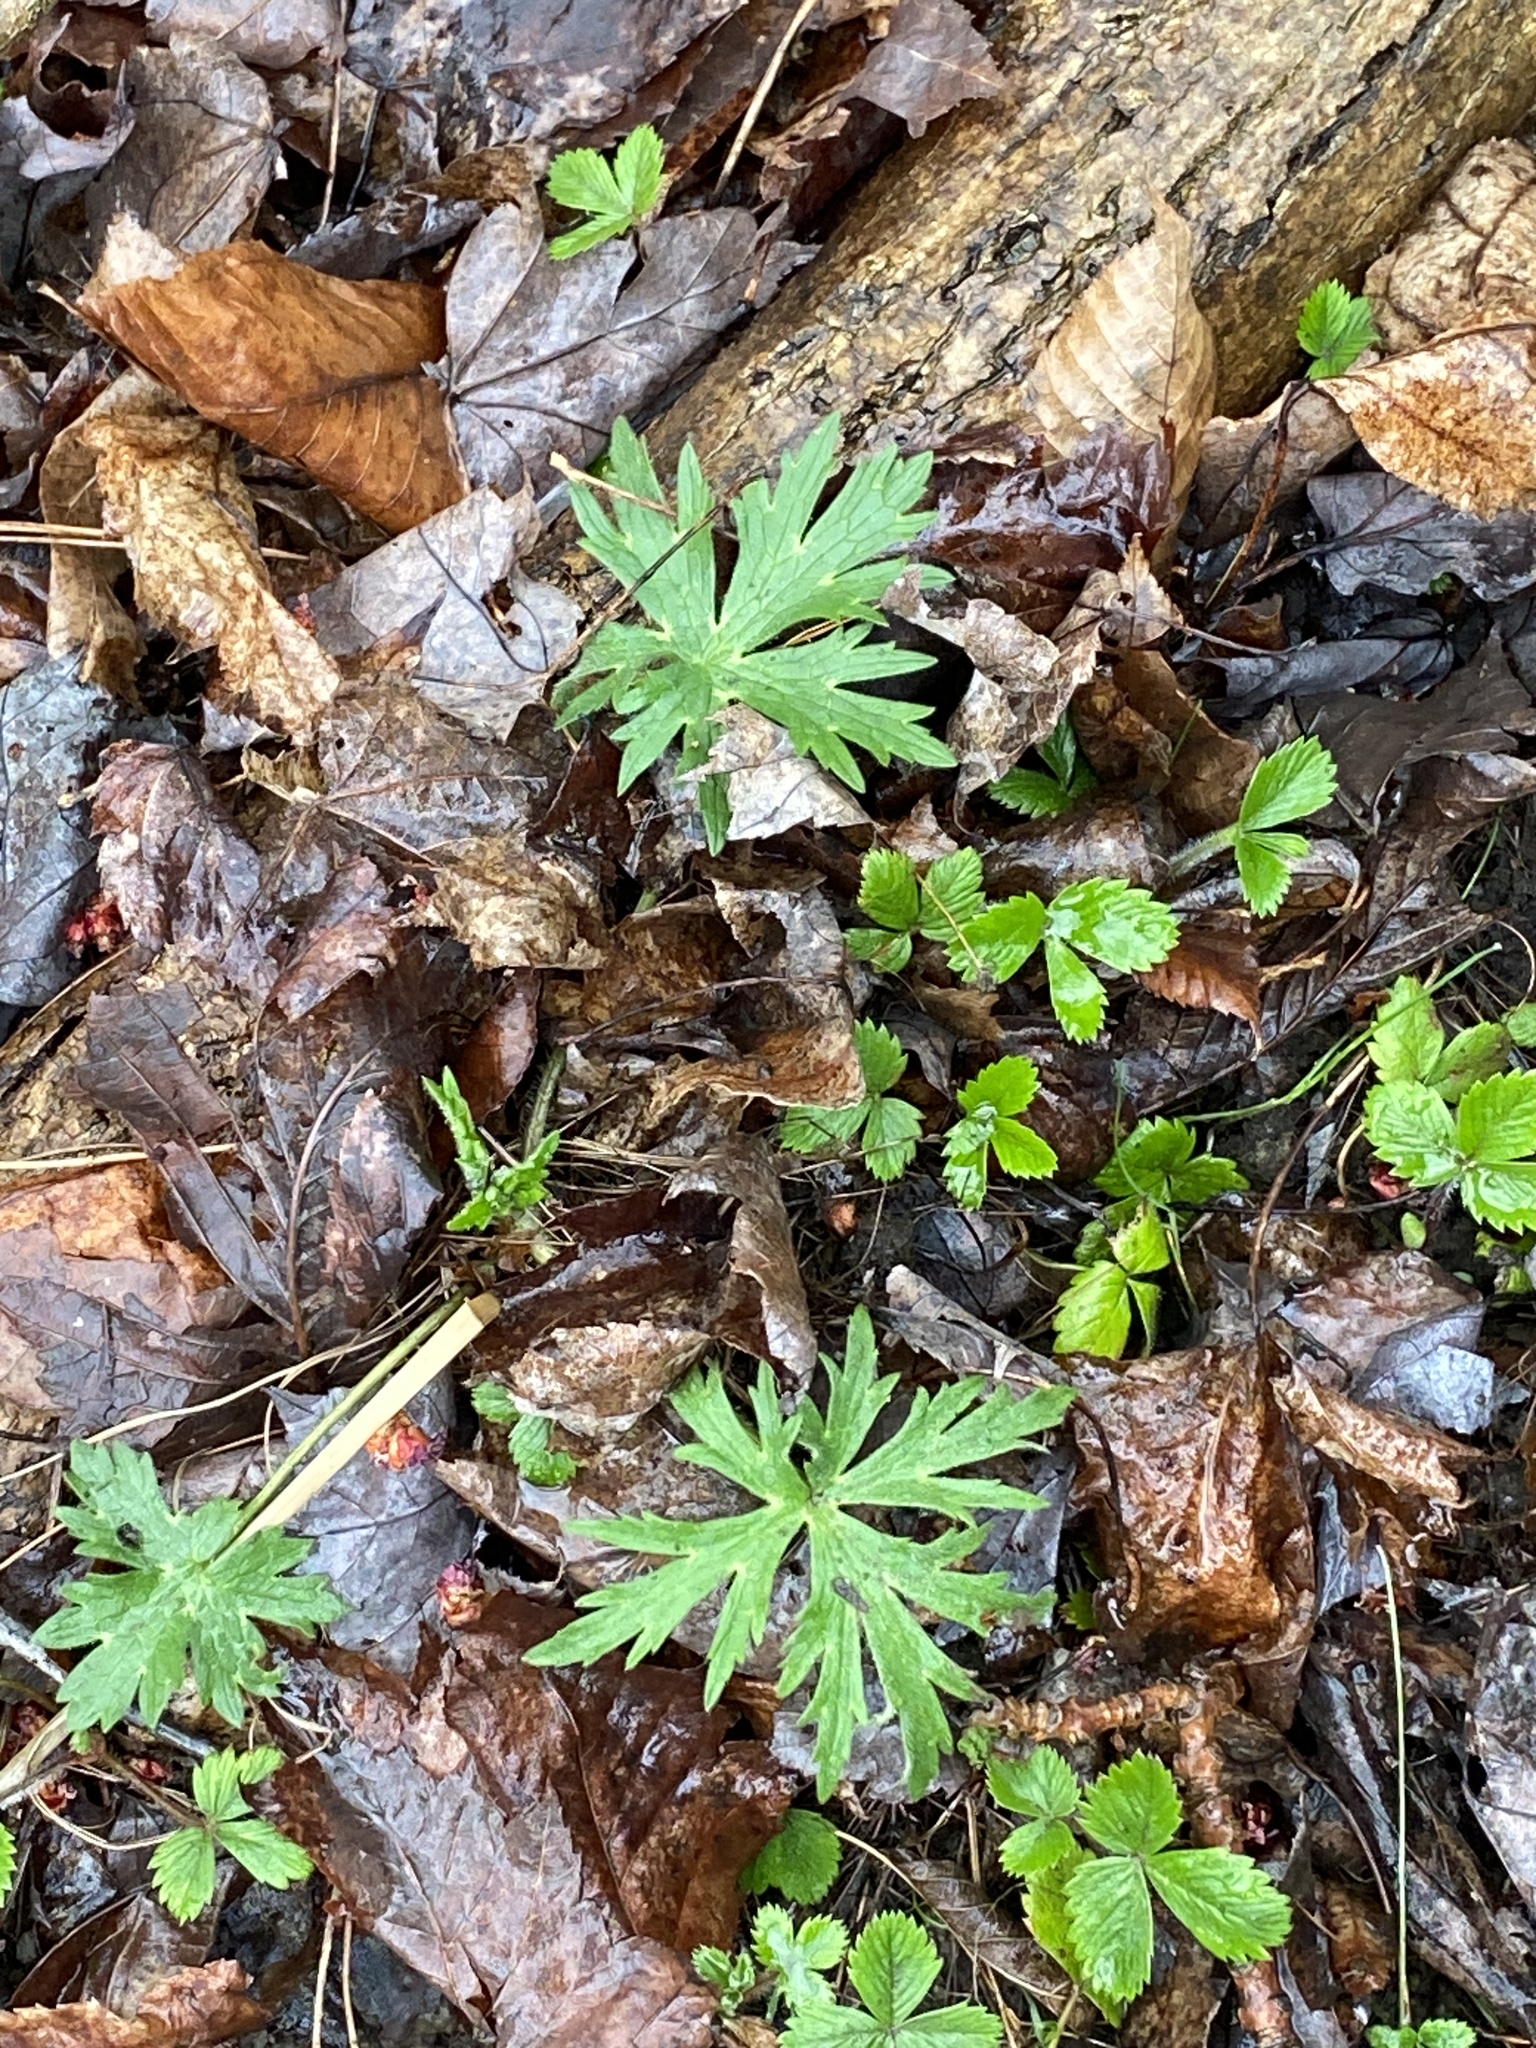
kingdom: Plantae
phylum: Tracheophyta
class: Magnoliopsida
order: Ranunculales
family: Ranunculaceae
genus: Ranunculus
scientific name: Ranunculus acris
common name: Meadow buttercup
